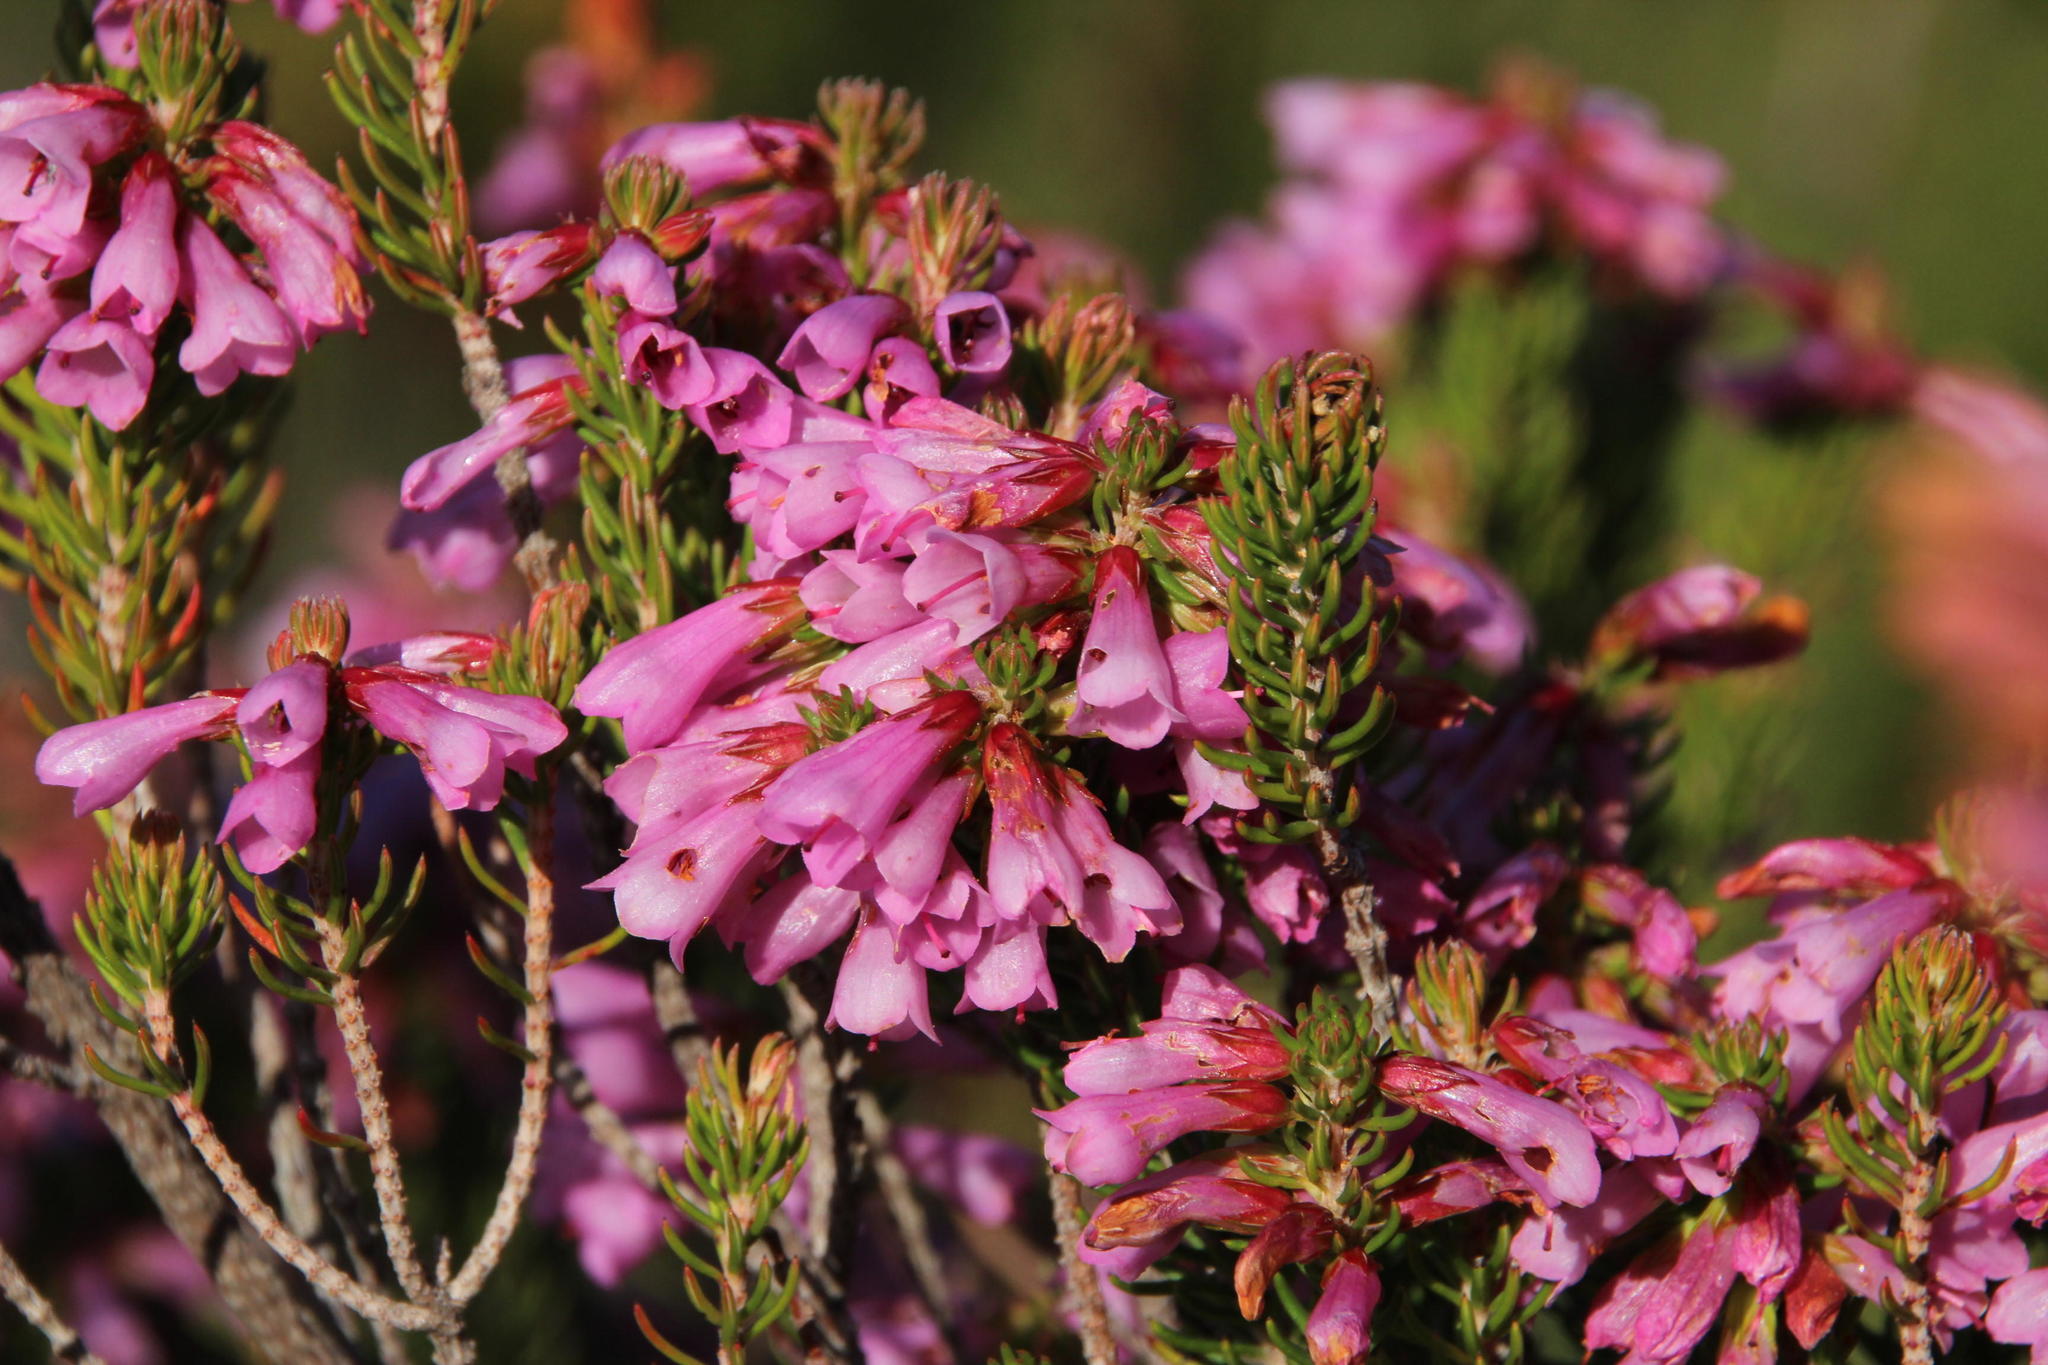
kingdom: Plantae
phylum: Tracheophyta
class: Magnoliopsida
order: Ericales
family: Ericaceae
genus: Erica
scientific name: Erica abietina
